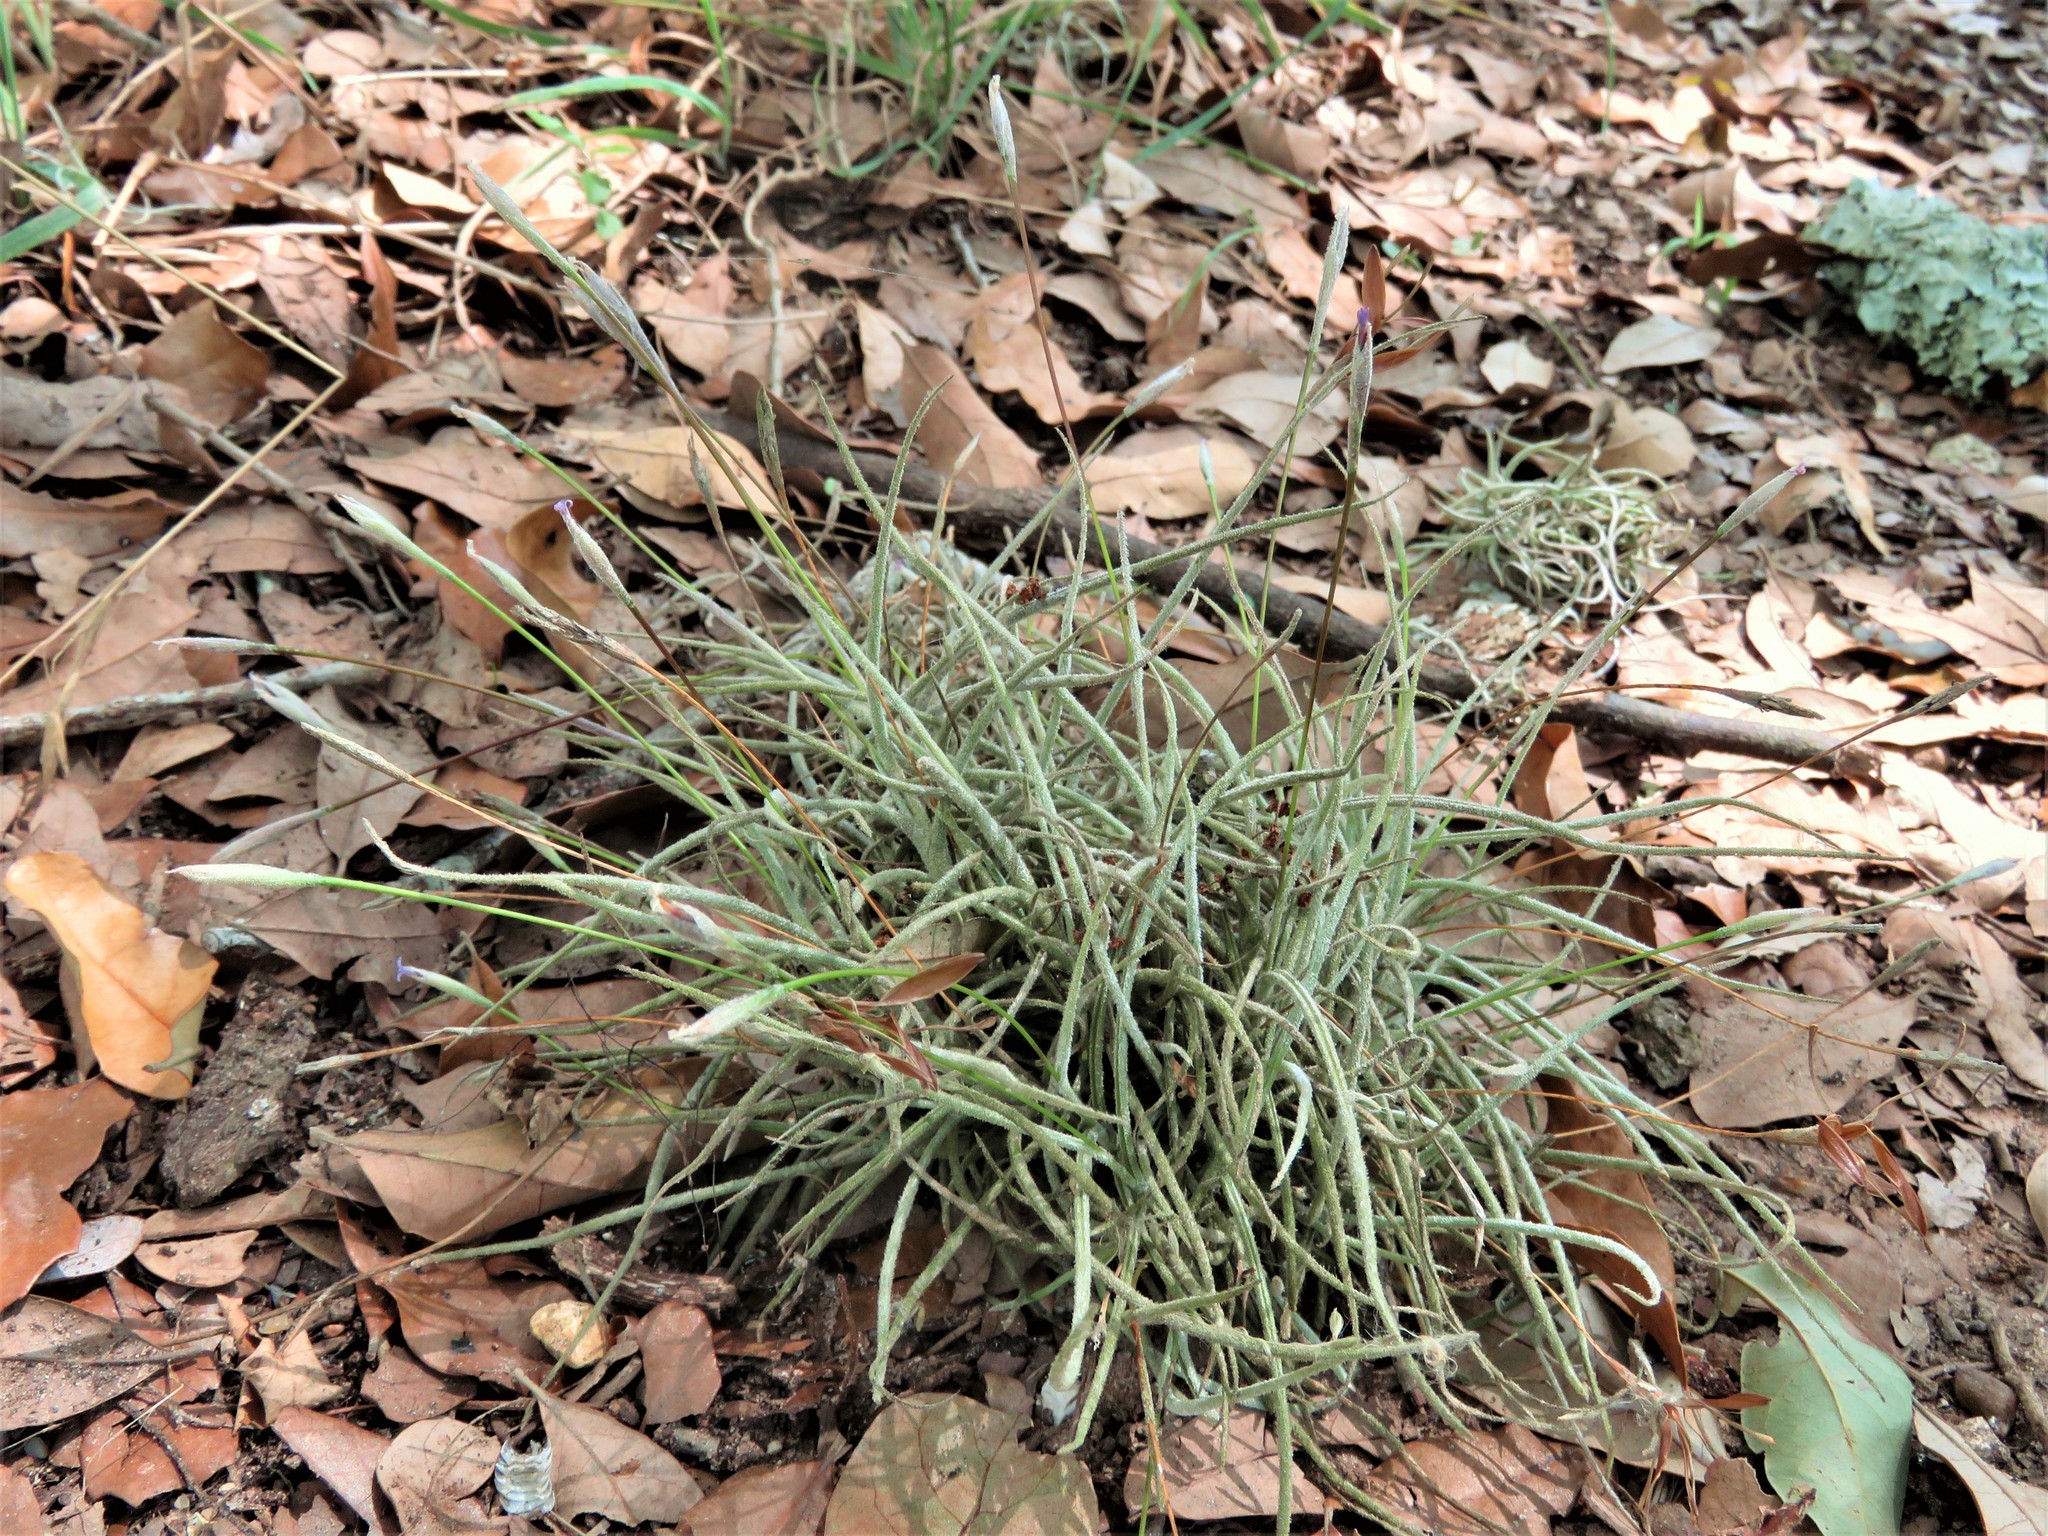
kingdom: Plantae
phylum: Tracheophyta
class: Liliopsida
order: Poales
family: Bromeliaceae
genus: Tillandsia
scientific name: Tillandsia recurvata
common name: Small ballmoss
